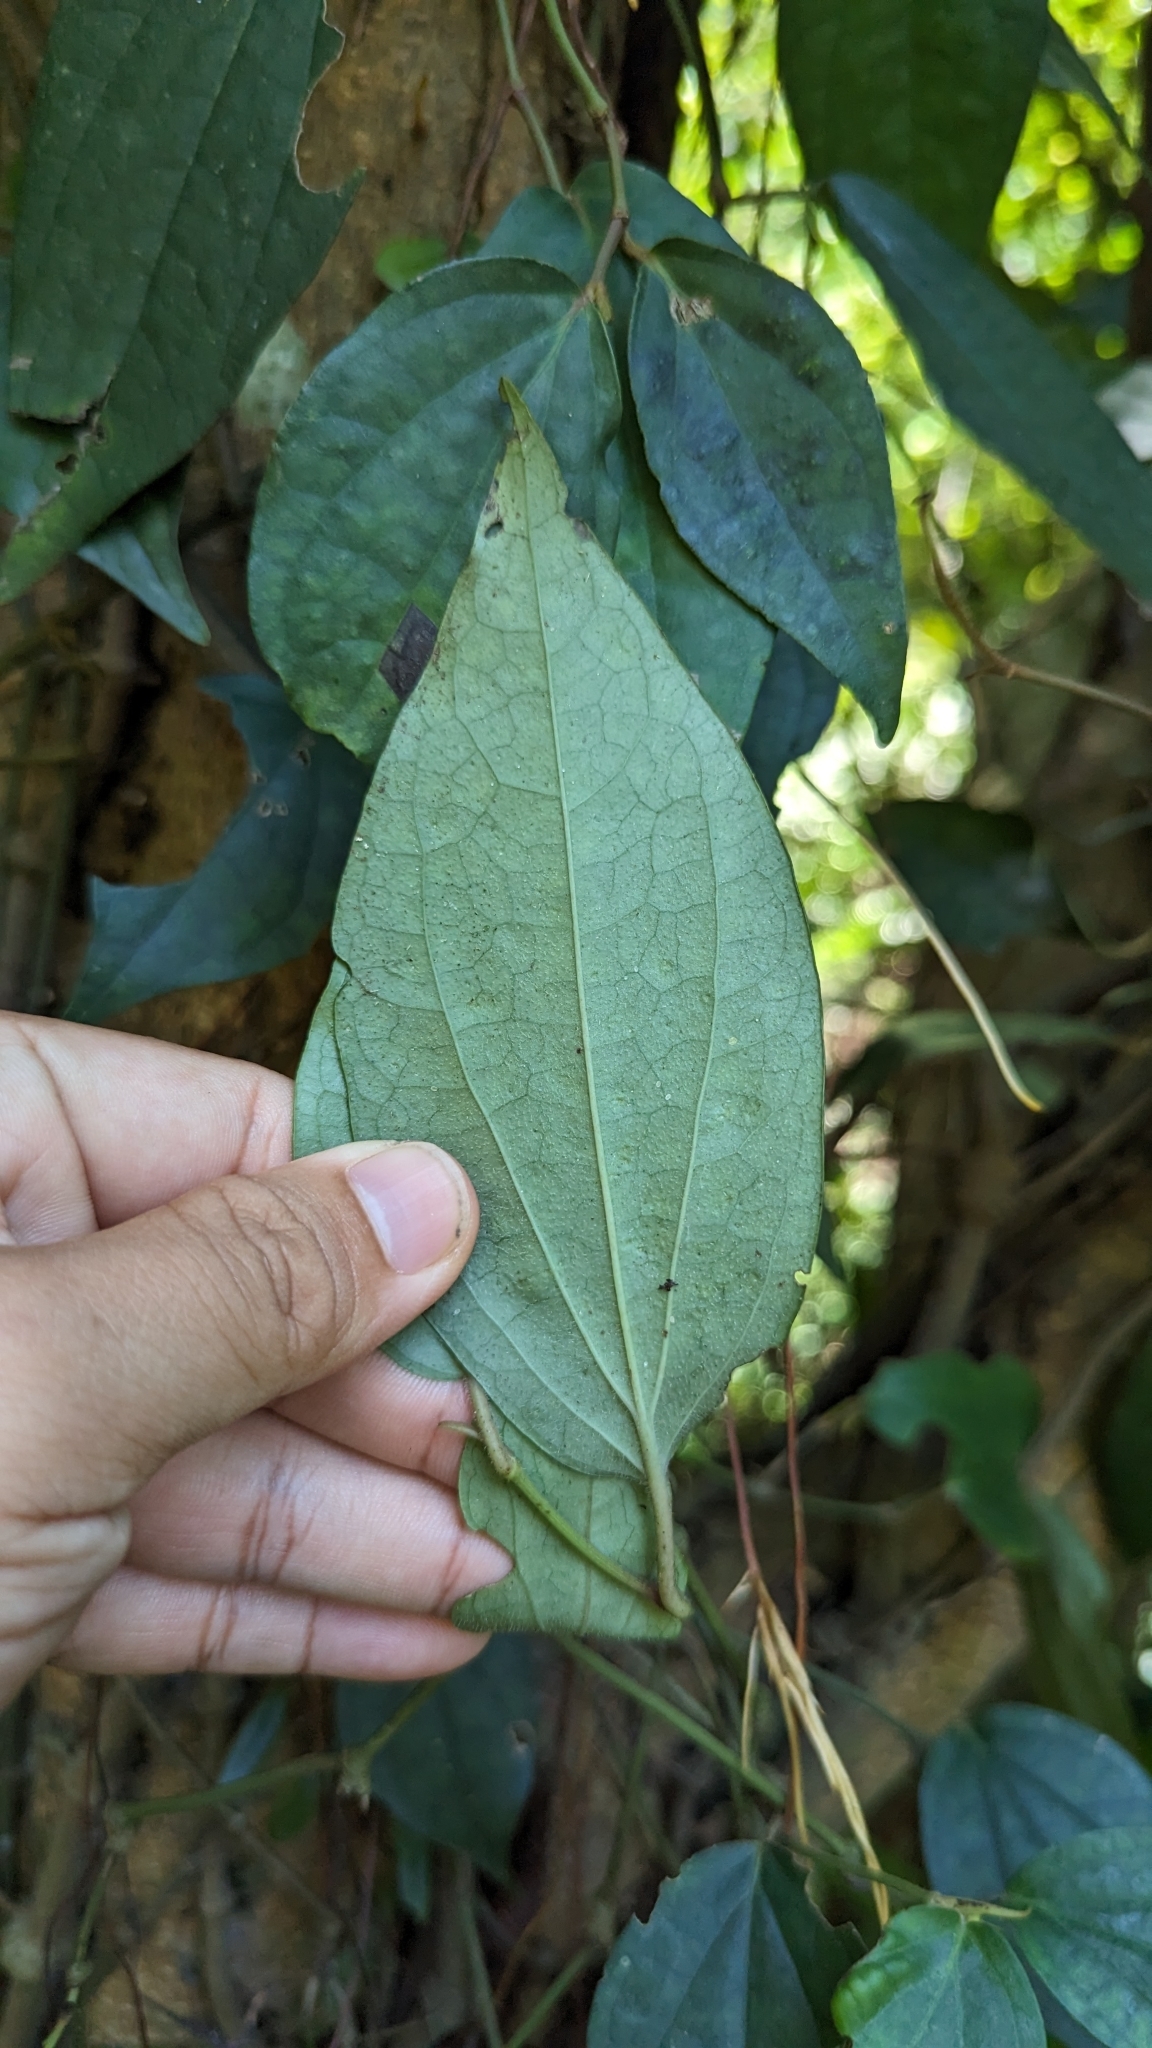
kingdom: Plantae
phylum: Tracheophyta
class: Magnoliopsida
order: Piperales
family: Piperaceae
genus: Piper
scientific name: Piper kadsura
